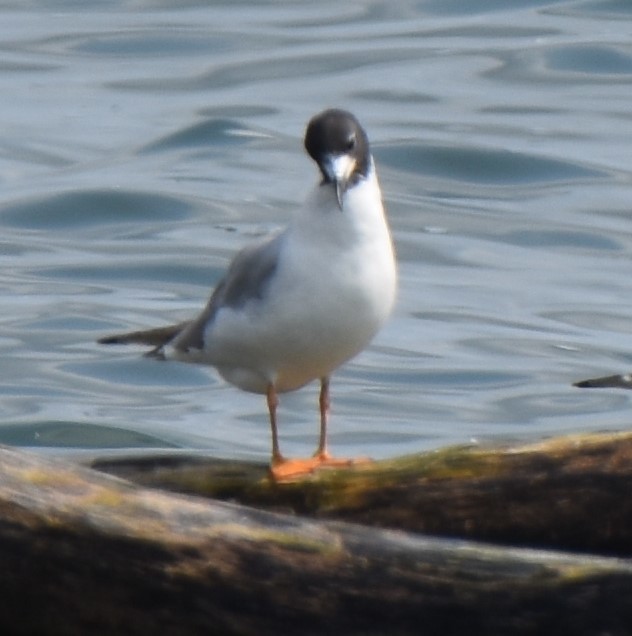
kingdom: Animalia
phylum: Chordata
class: Aves
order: Charadriiformes
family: Laridae
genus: Chroicocephalus
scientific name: Chroicocephalus philadelphia
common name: Bonaparte's gull
